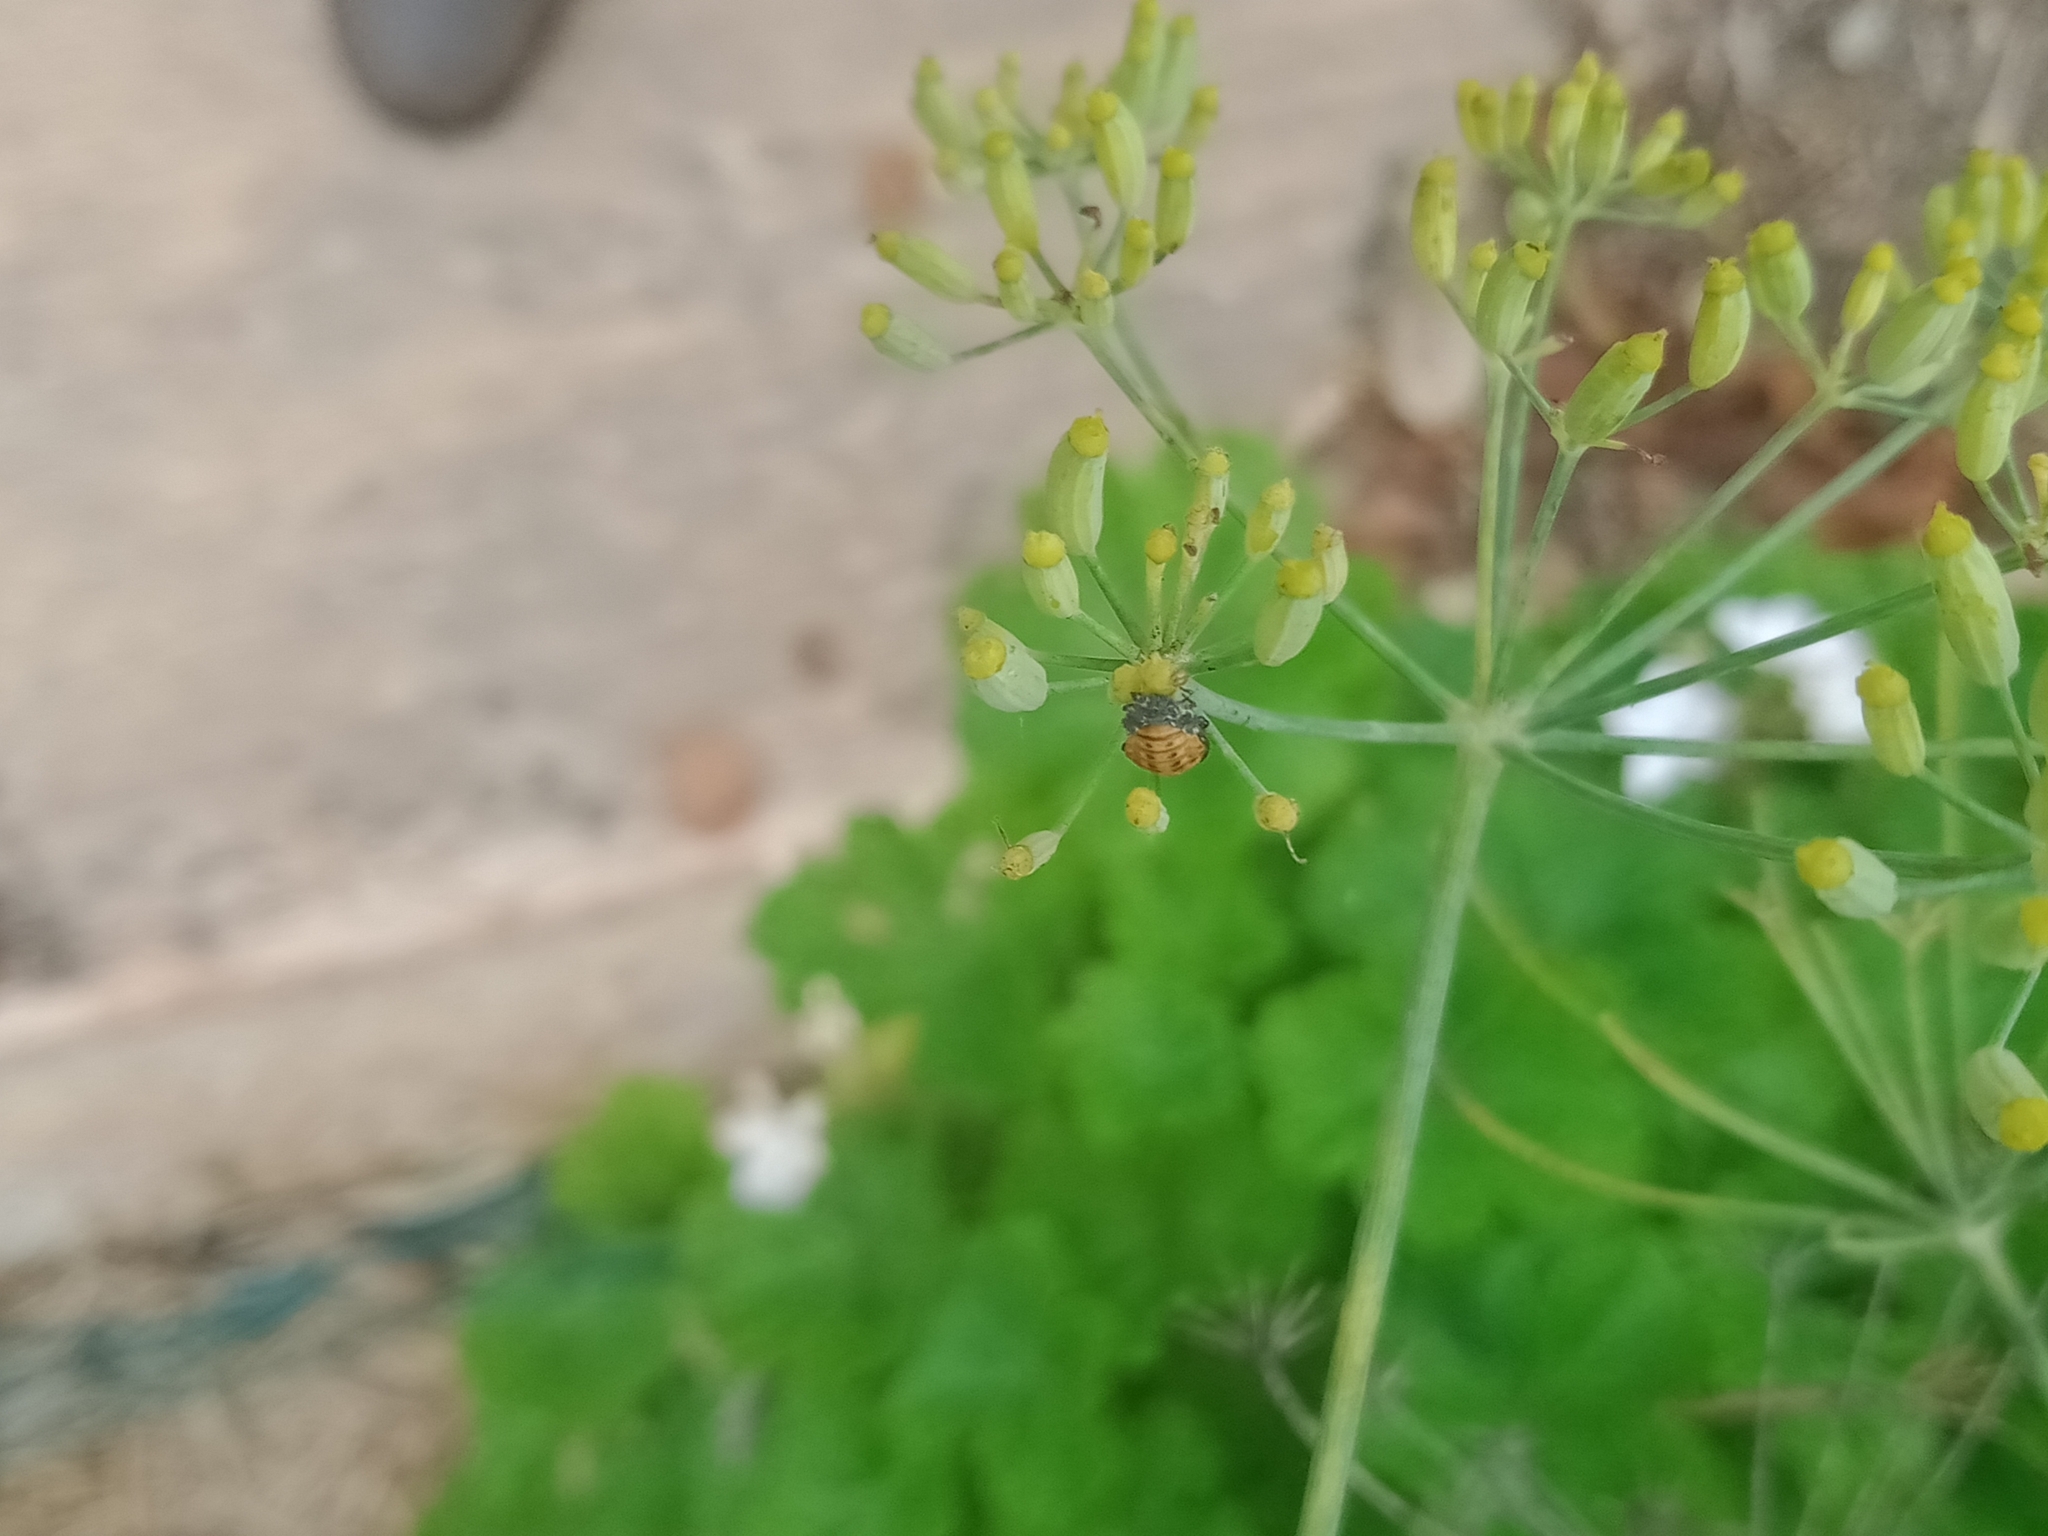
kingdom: Animalia
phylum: Arthropoda
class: Insecta
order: Coleoptera
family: Coccinellidae
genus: Hippodamia
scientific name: Hippodamia variegata
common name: Ladybird beetle
